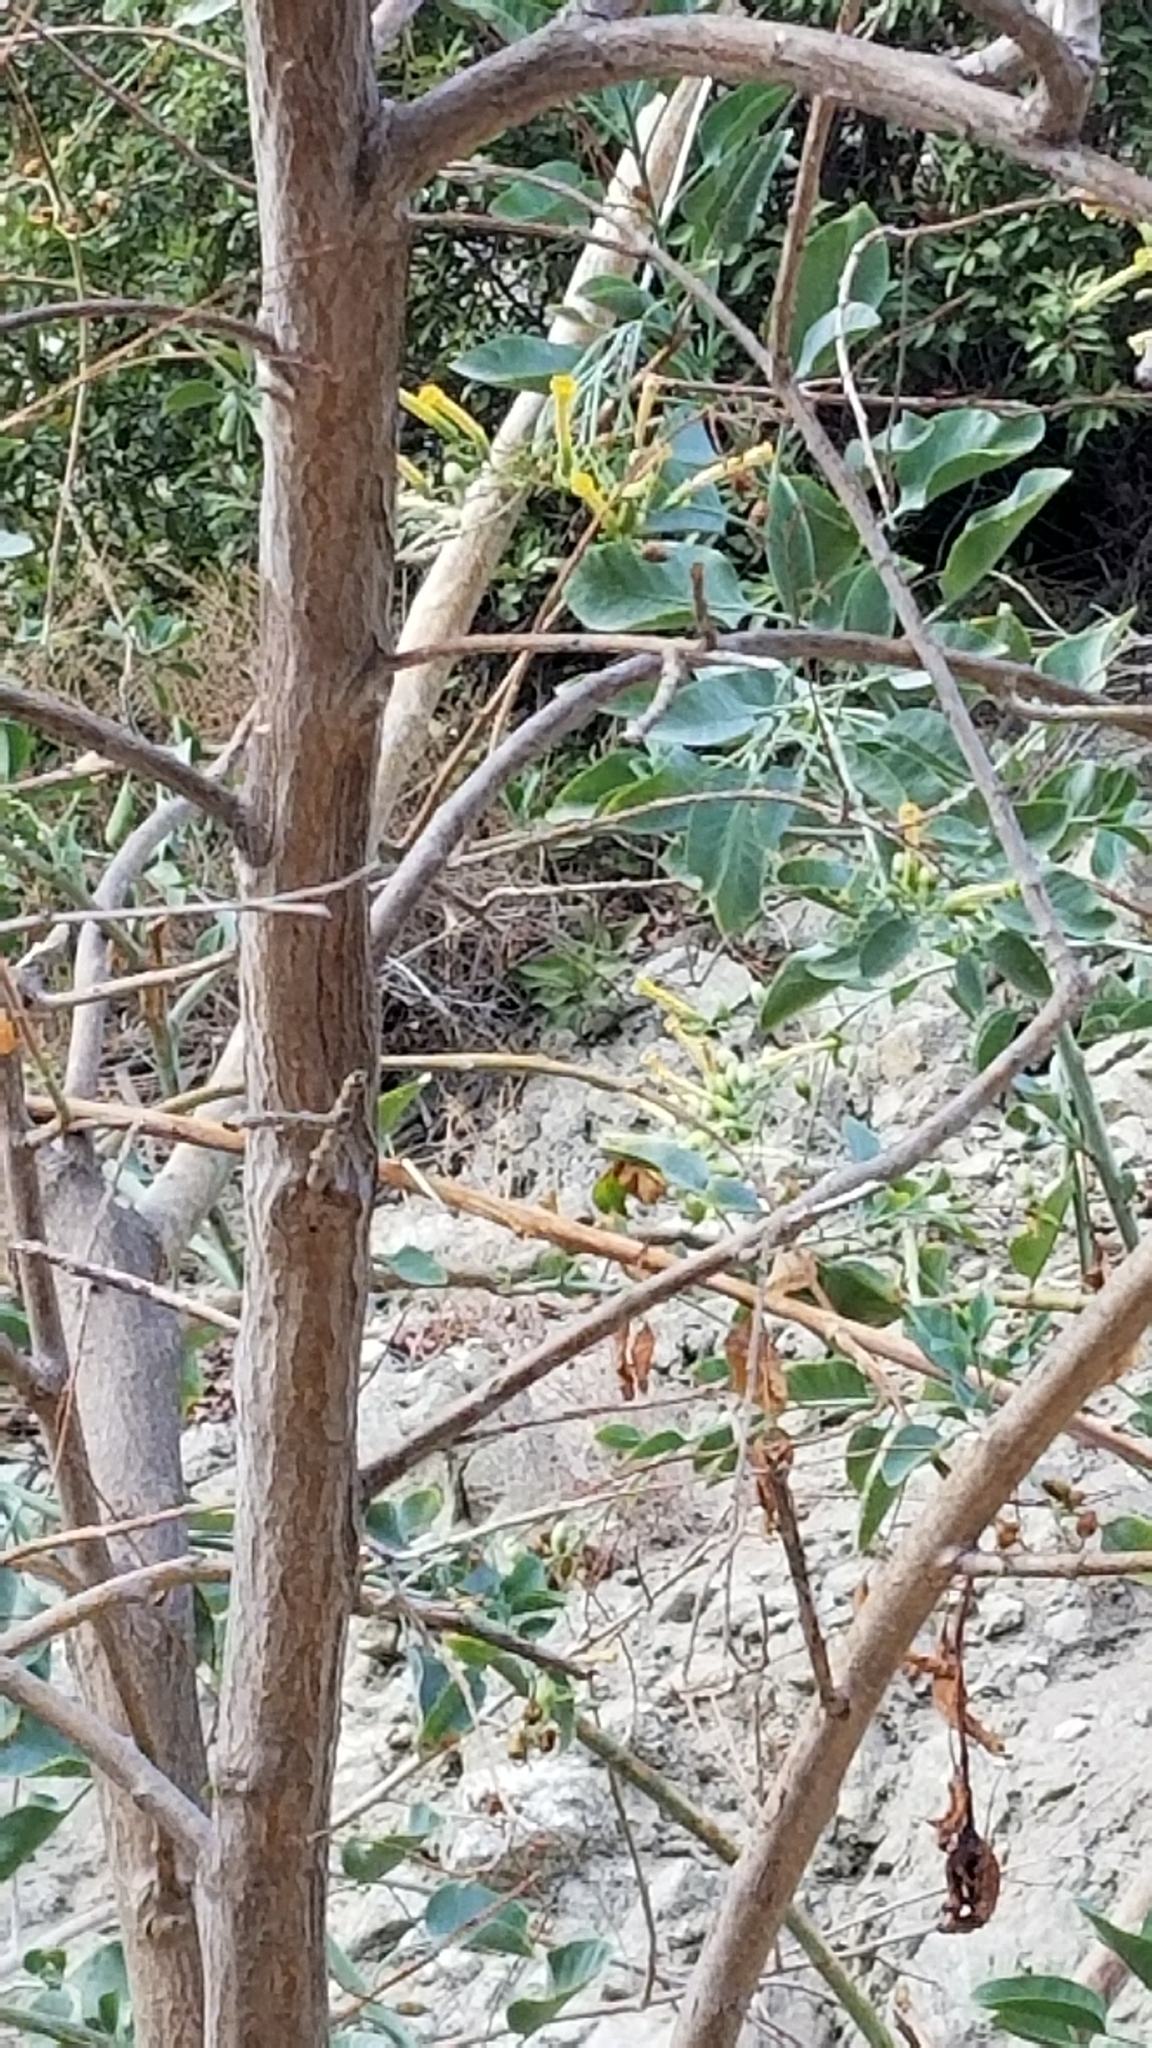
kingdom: Plantae
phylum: Tracheophyta
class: Magnoliopsida
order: Solanales
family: Solanaceae
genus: Nicotiana
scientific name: Nicotiana glauca
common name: Tree tobacco
